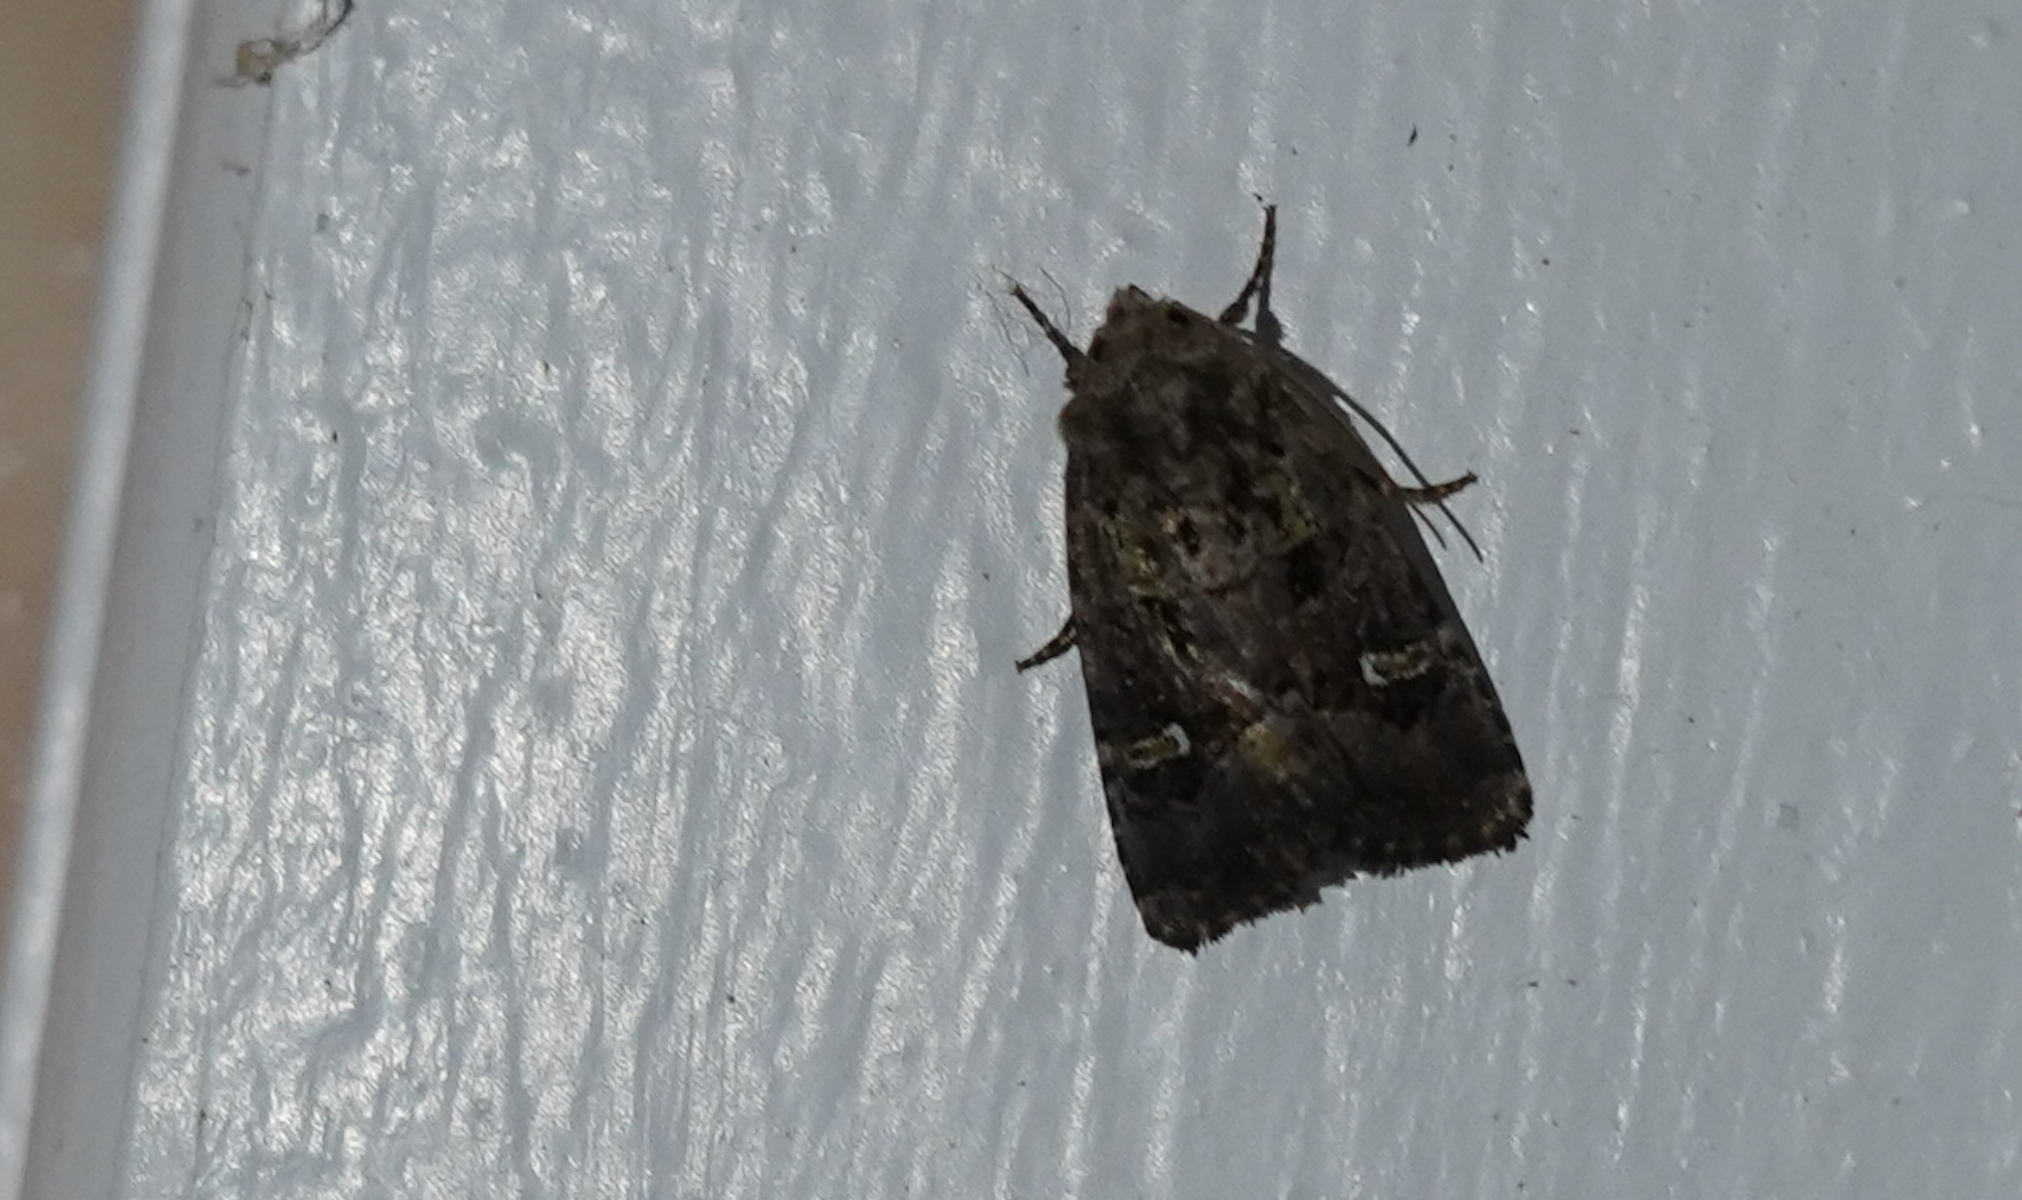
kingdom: Animalia
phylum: Arthropoda
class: Insecta
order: Lepidoptera
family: Noctuidae
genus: Lacinipolia
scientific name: Lacinipolia renigera
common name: Kidney-spotted minor
